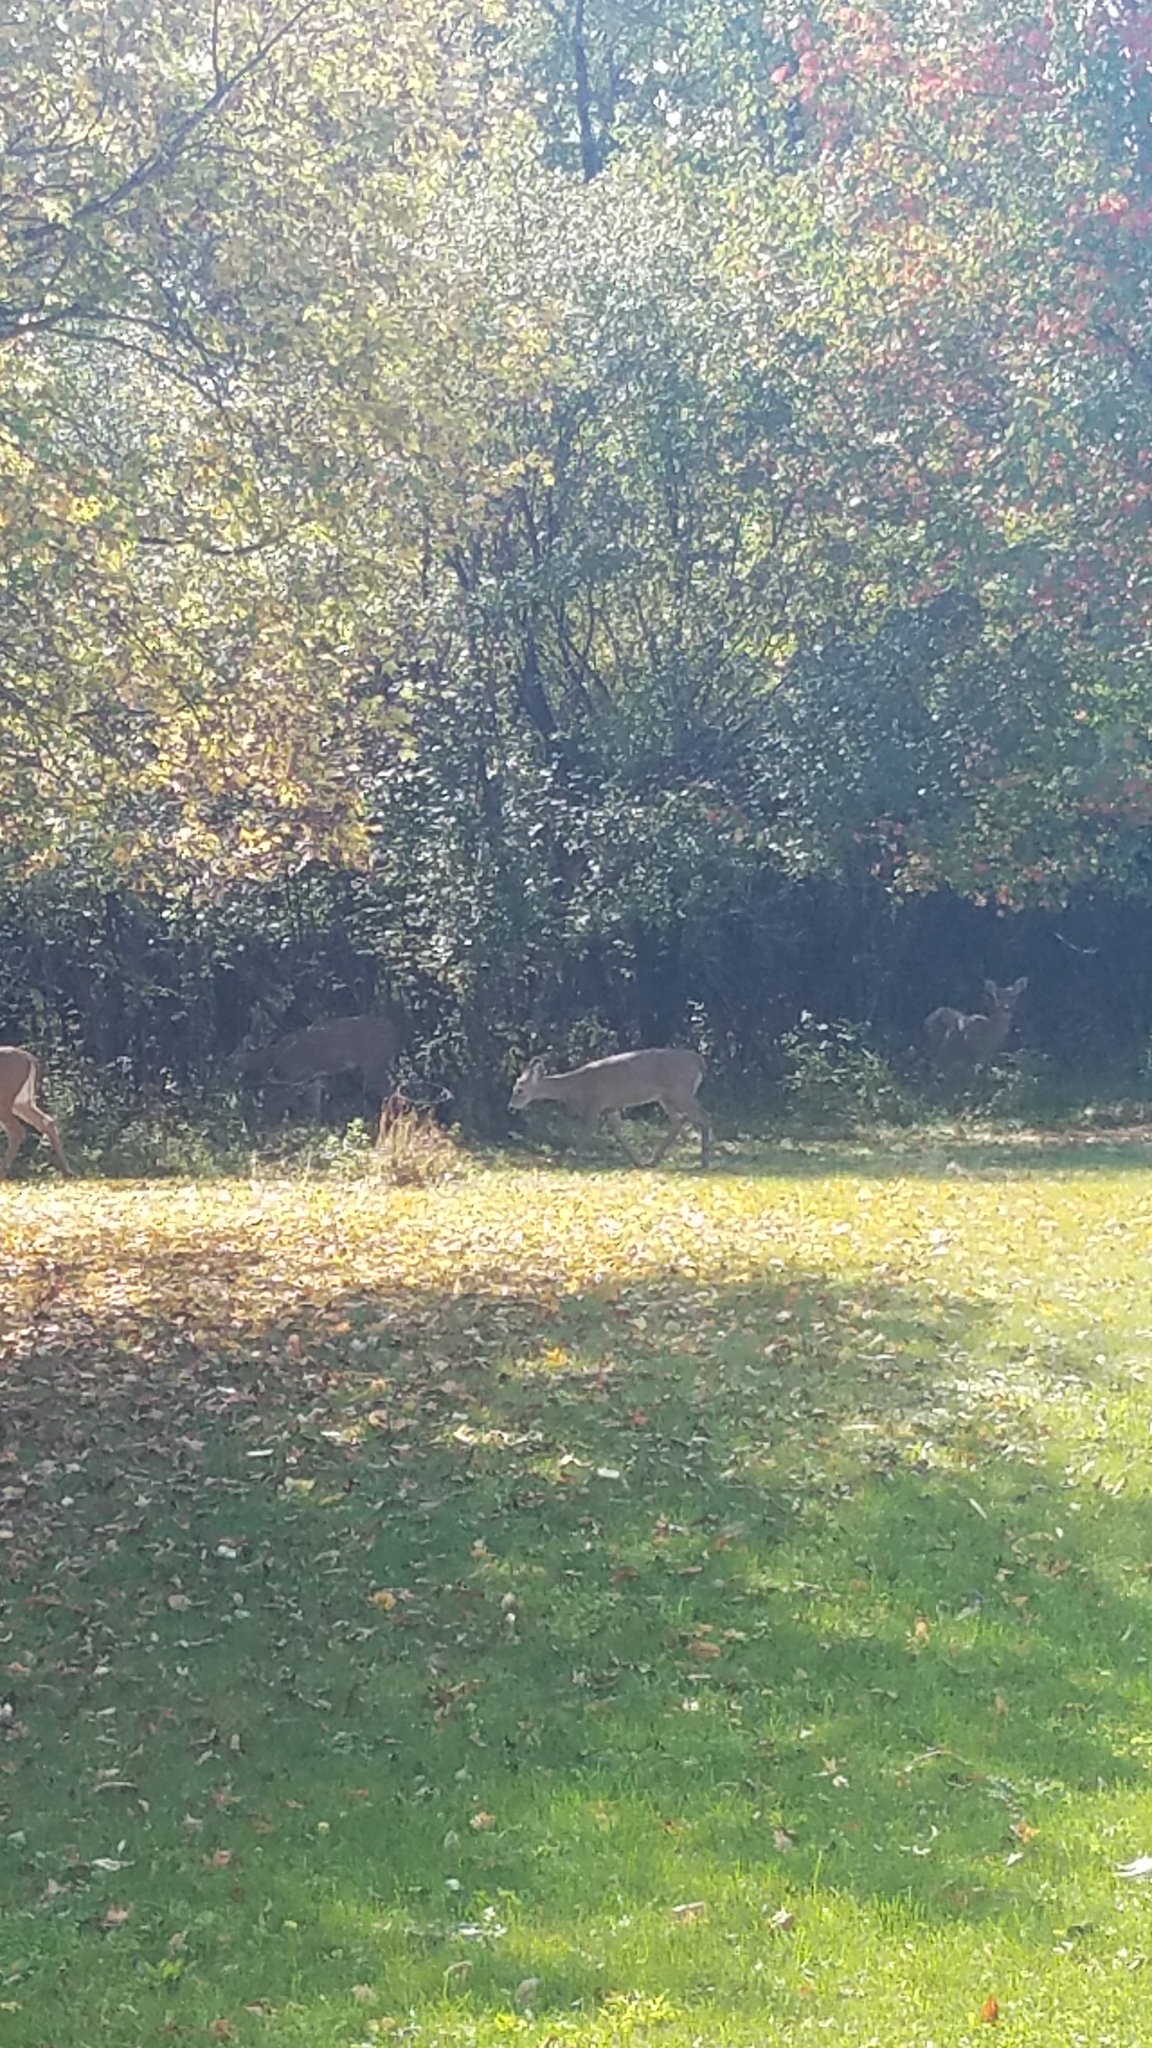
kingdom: Animalia
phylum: Chordata
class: Mammalia
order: Artiodactyla
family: Cervidae
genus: Odocoileus
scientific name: Odocoileus virginianus
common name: White-tailed deer
